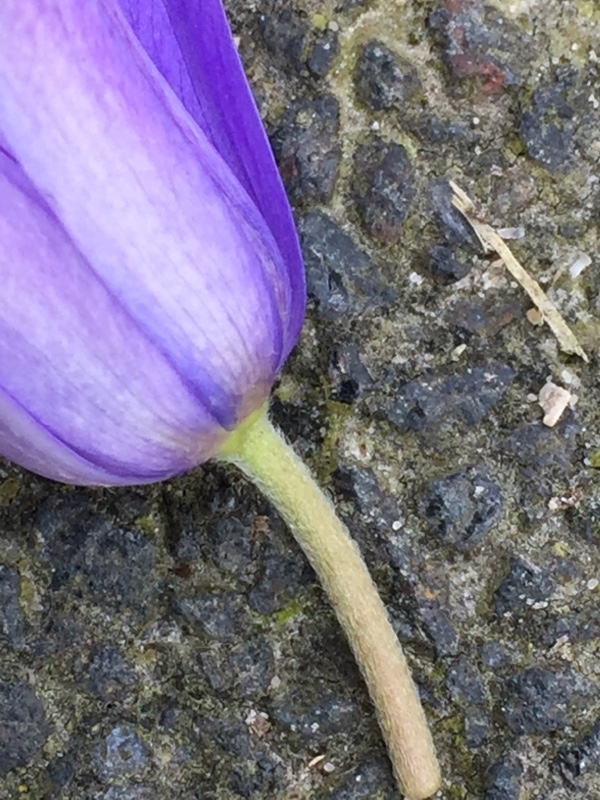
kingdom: Plantae
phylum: Tracheophyta
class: Magnoliopsida
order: Ranunculales
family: Ranunculaceae
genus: Anemone
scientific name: Anemone apennina
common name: Blue anemone
